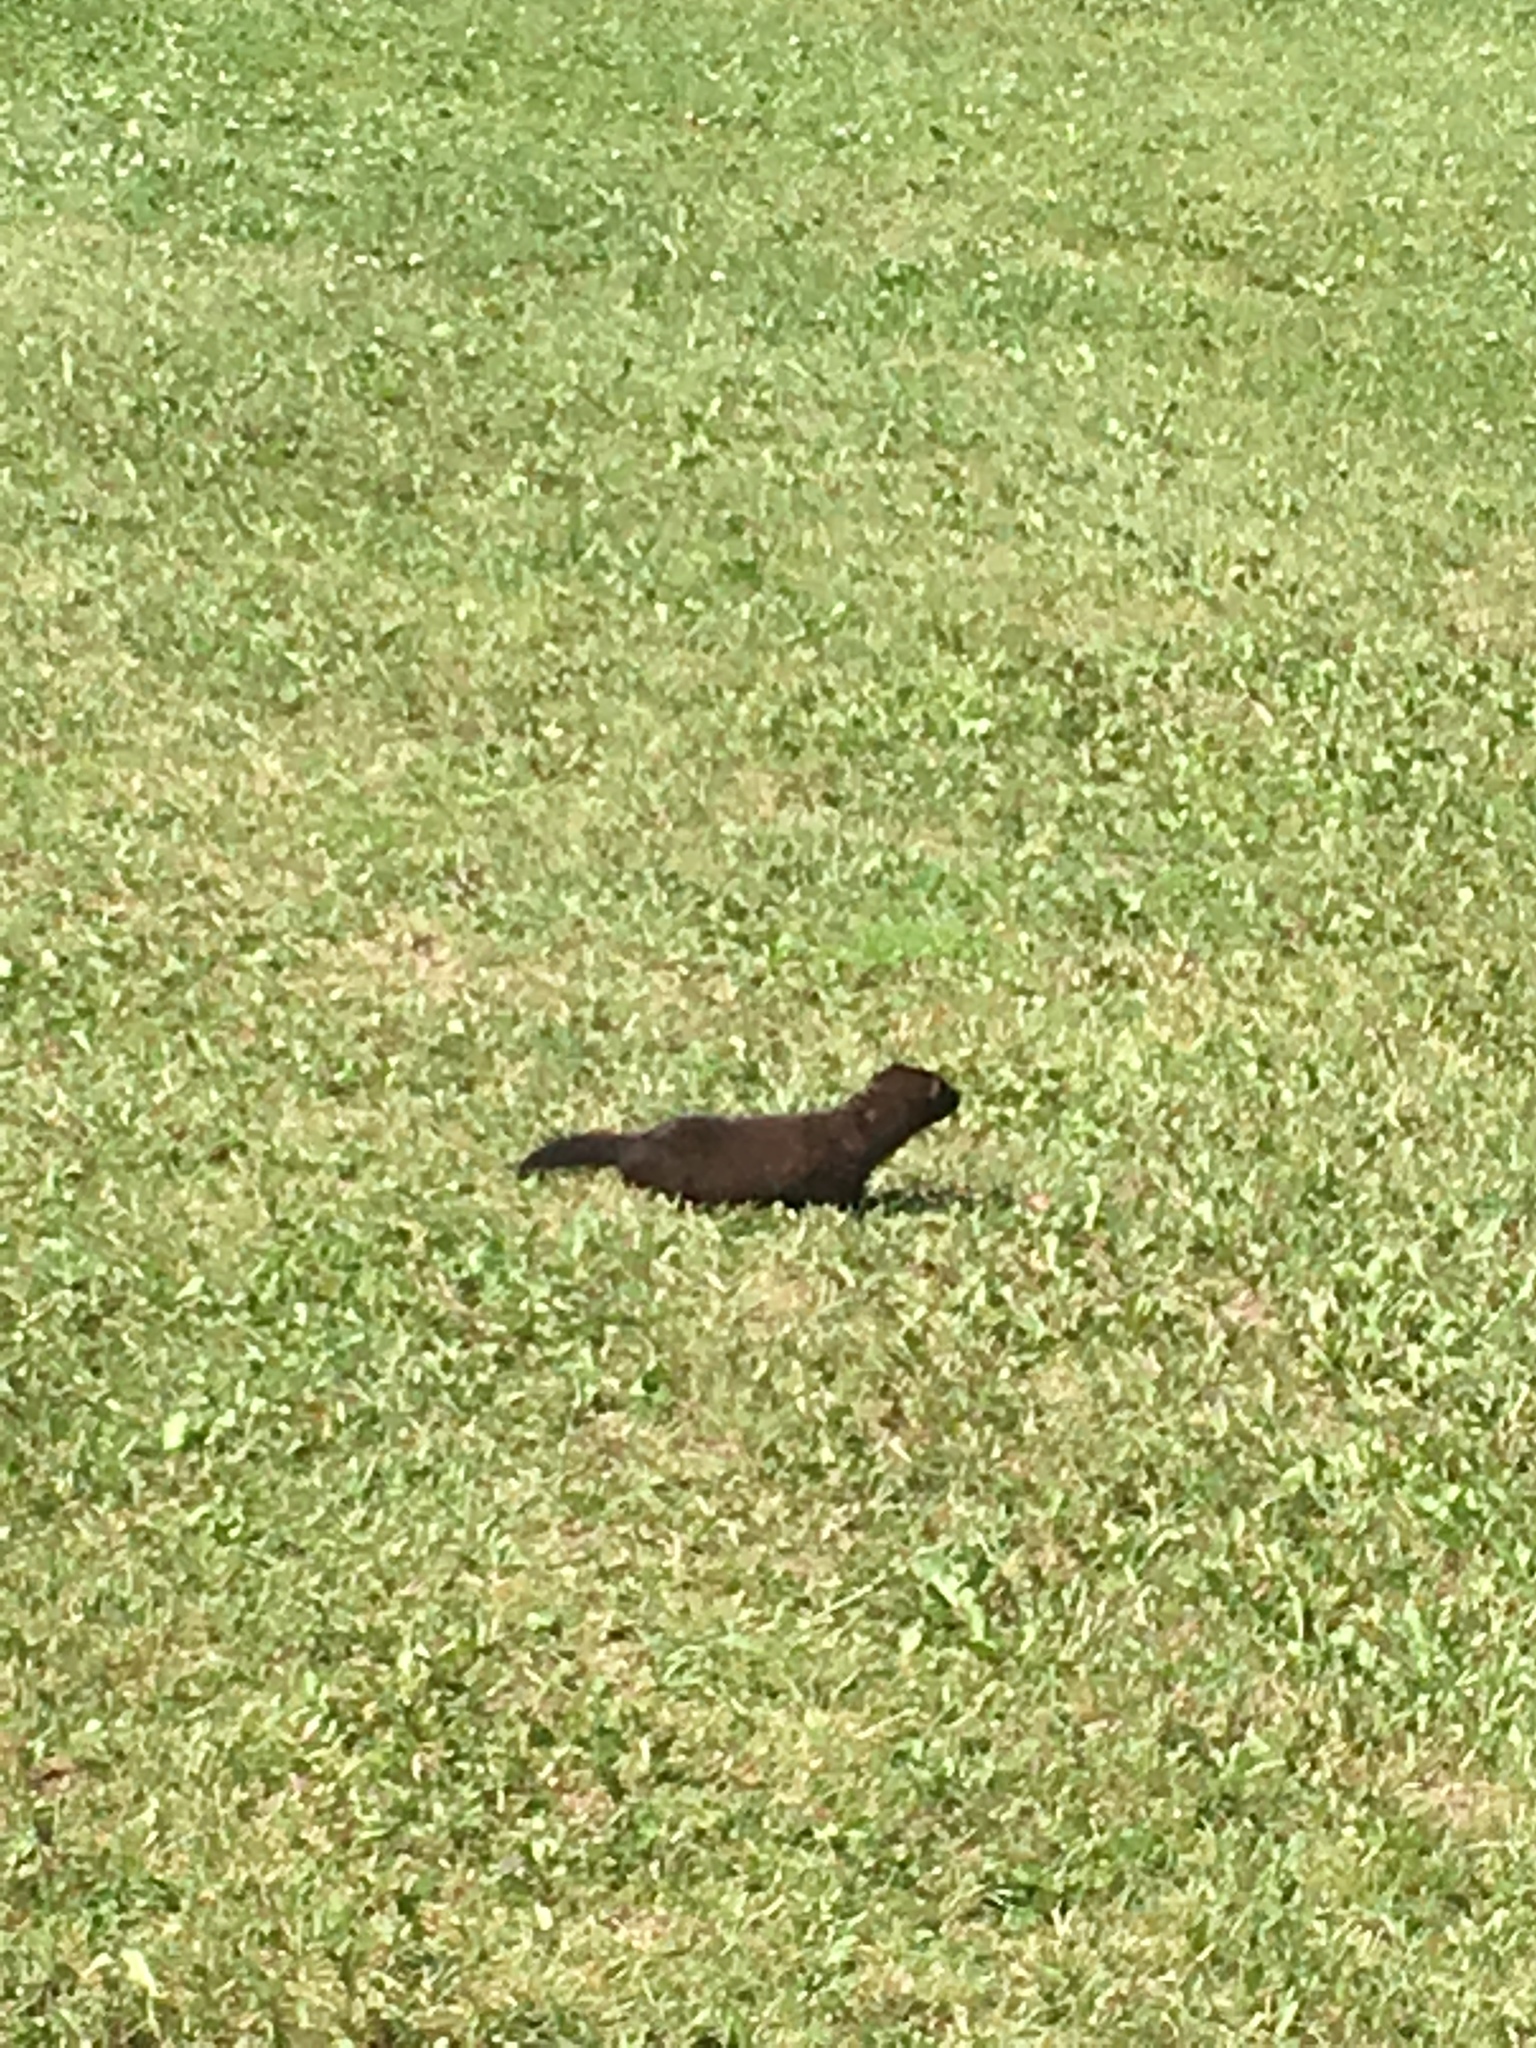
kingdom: Animalia
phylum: Chordata
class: Mammalia
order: Carnivora
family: Mustelidae
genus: Mustela
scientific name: Mustela
